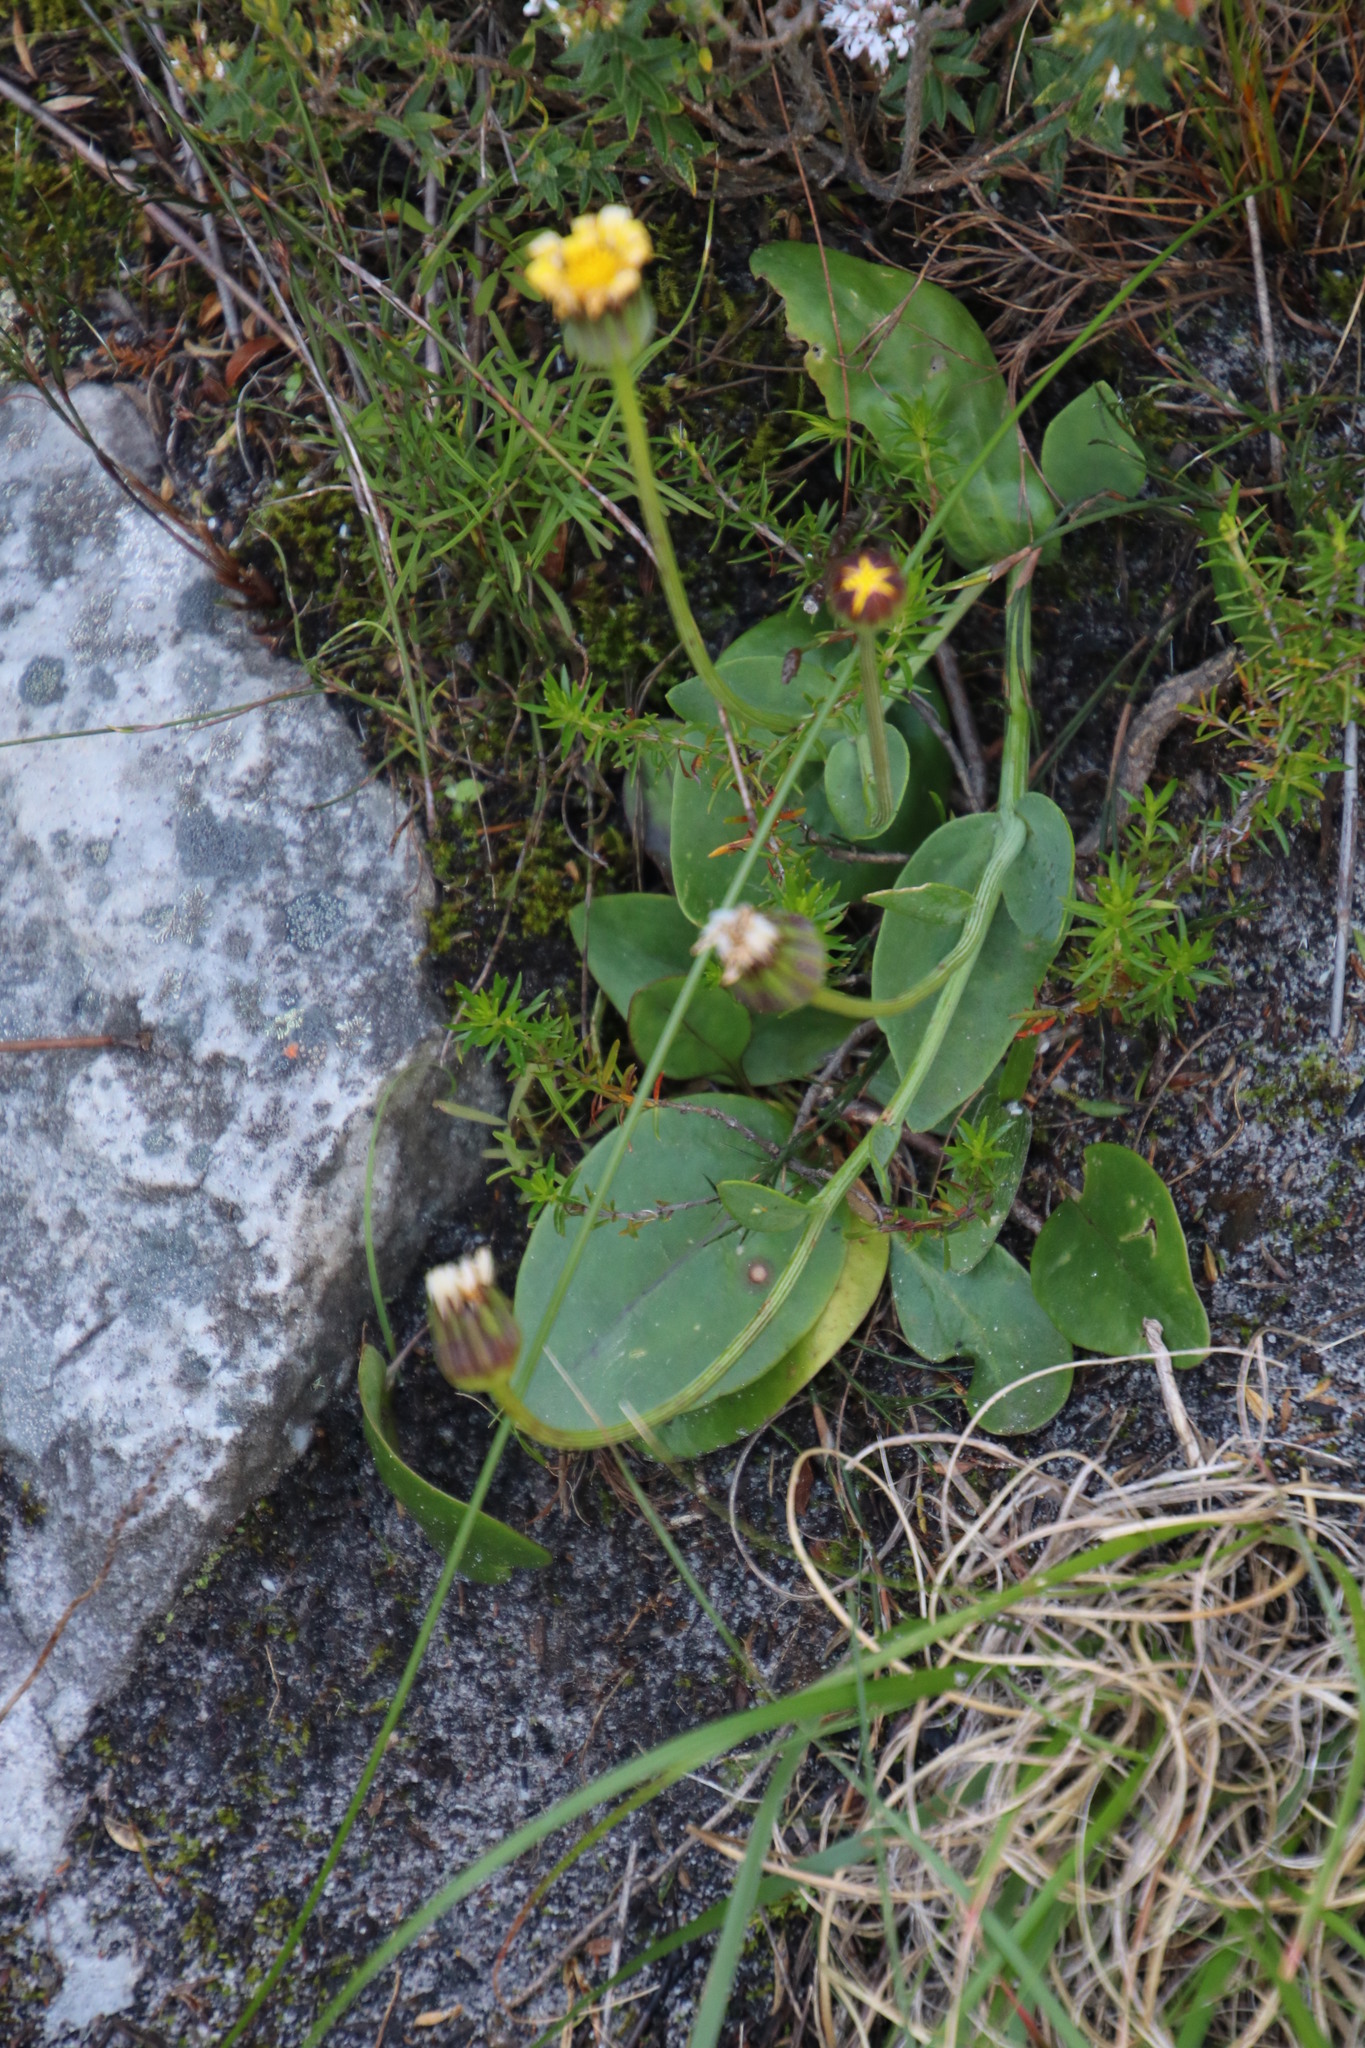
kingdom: Plantae
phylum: Tracheophyta
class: Magnoliopsida
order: Asterales
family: Asteraceae
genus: Othonna
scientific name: Othonna bulbosa
